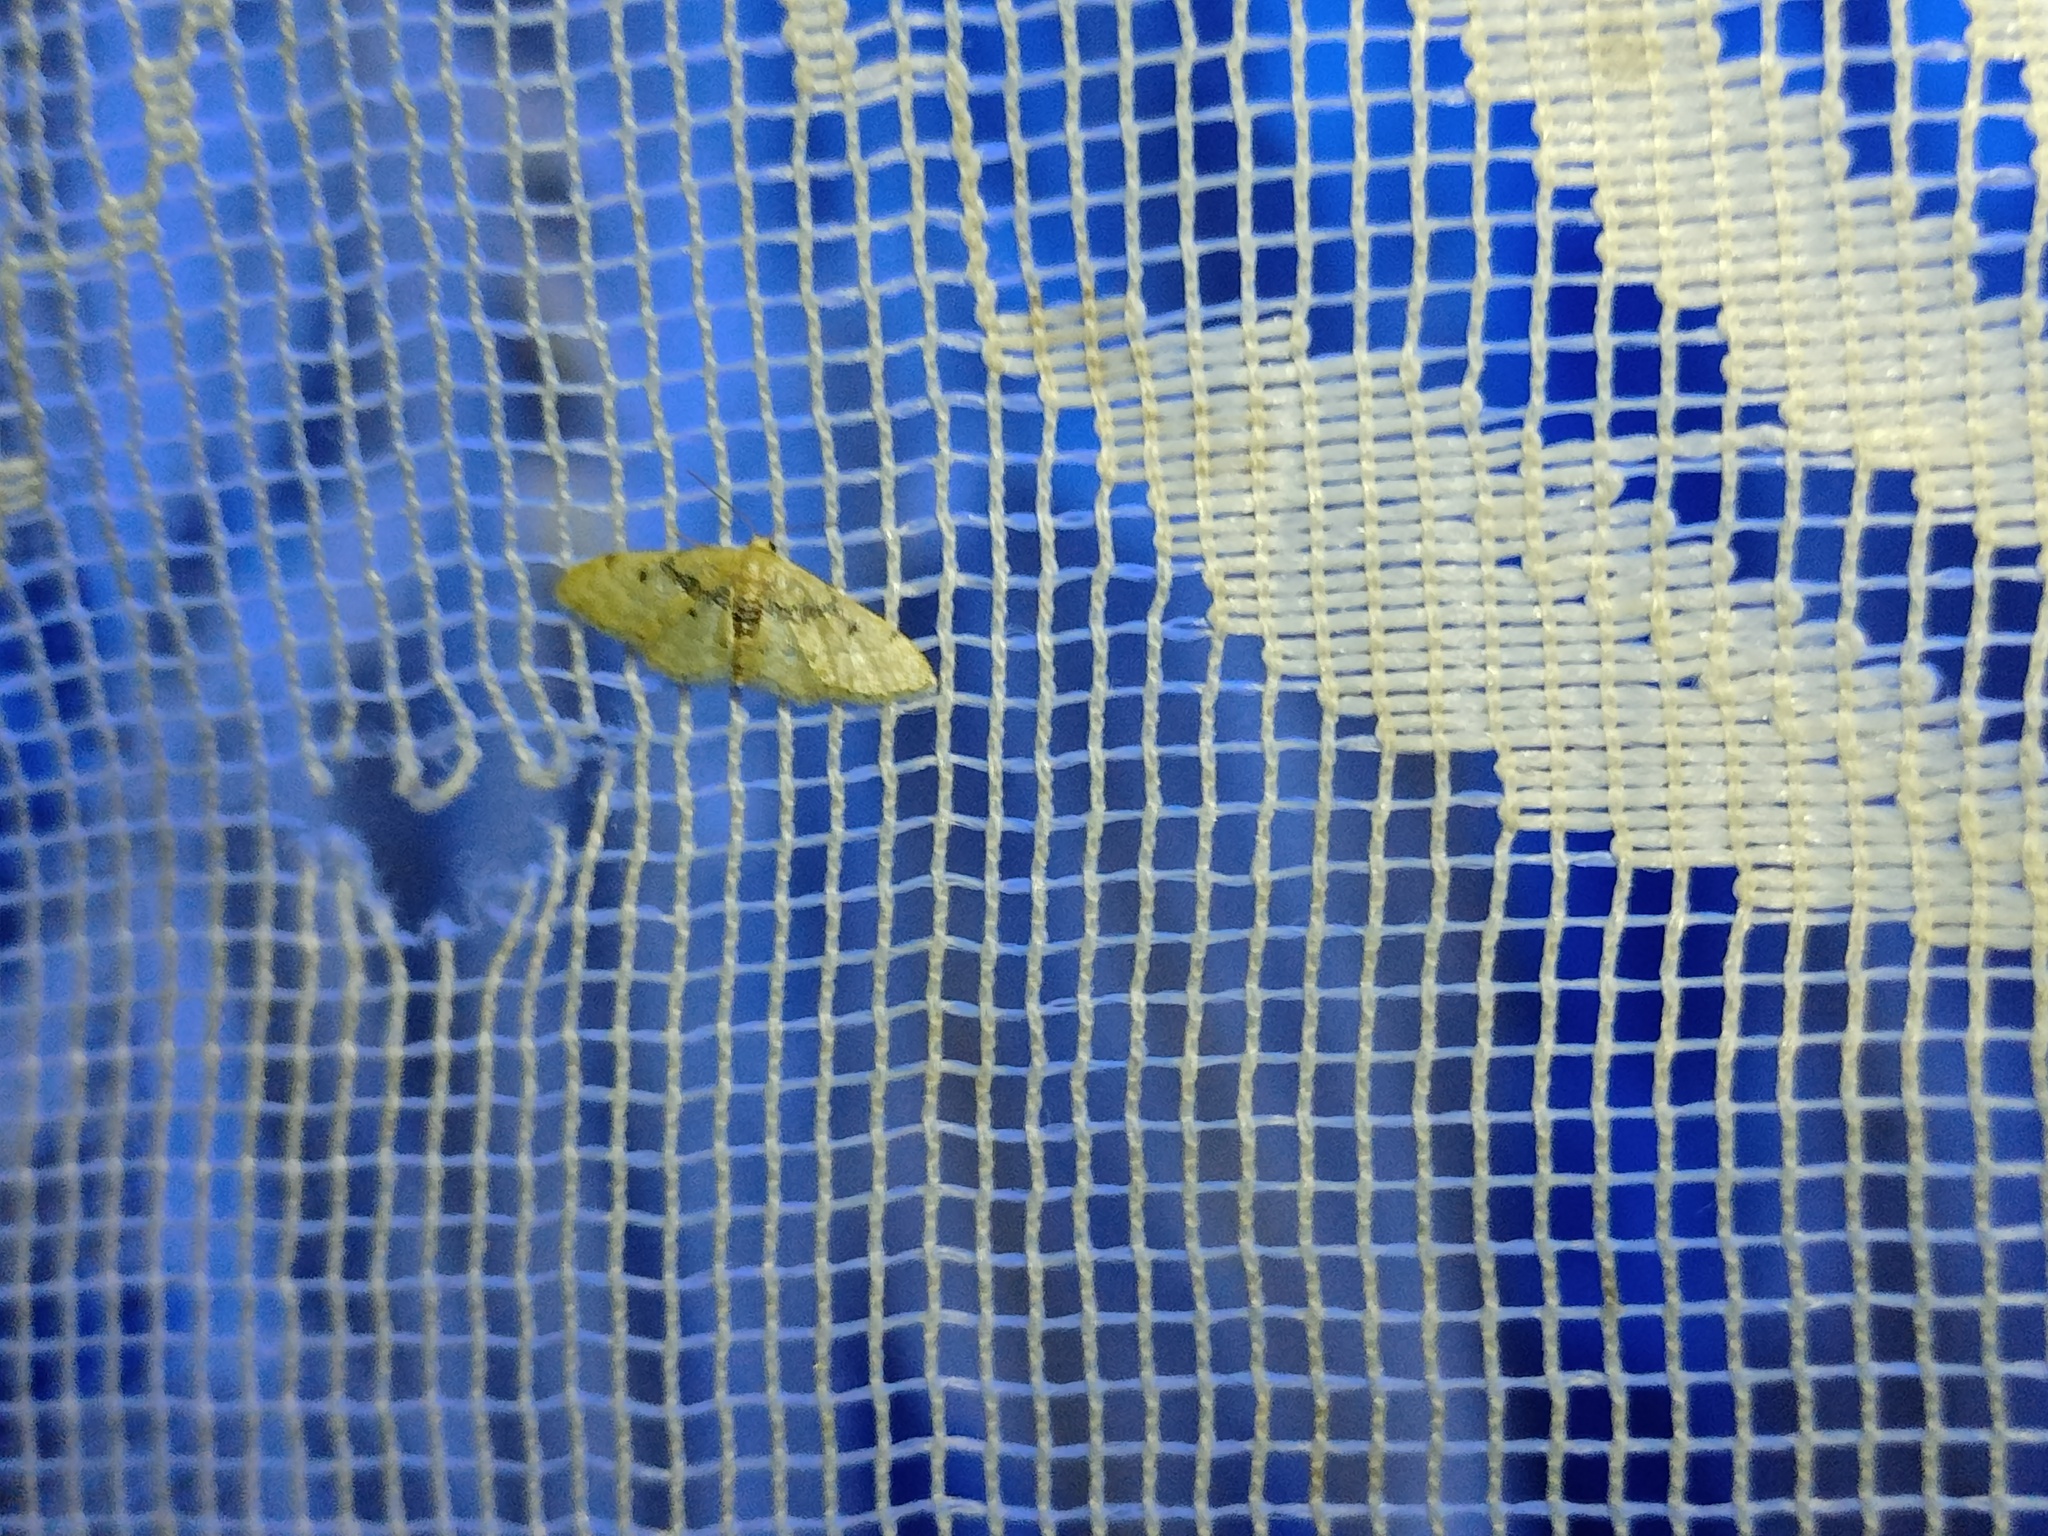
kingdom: Animalia
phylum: Arthropoda
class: Insecta
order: Lepidoptera
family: Geometridae
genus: Idaea
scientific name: Idaea intermedia
